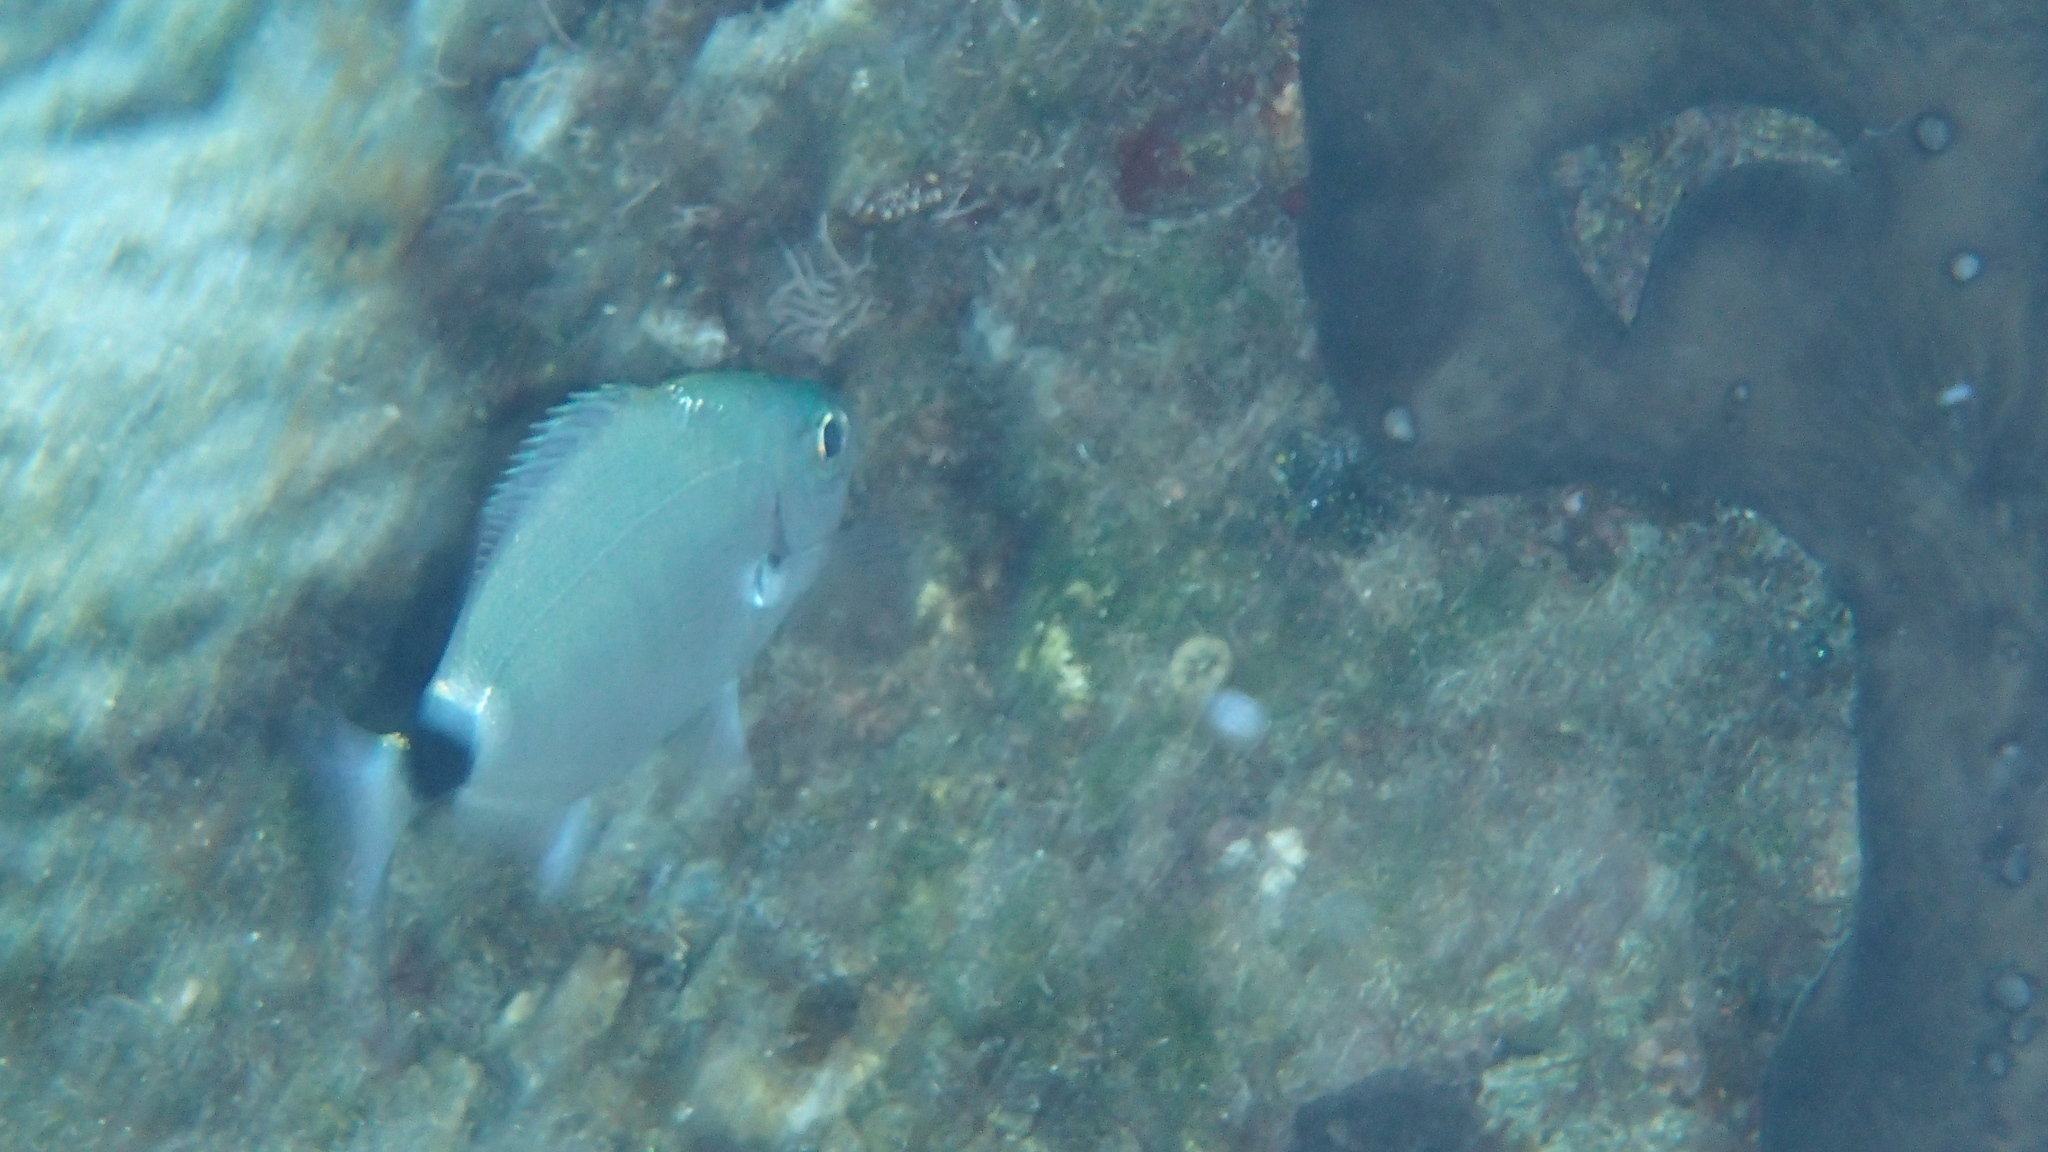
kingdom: Animalia
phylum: Chordata
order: Perciformes
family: Sparidae
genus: Oblada
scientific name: Oblada melanura
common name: Saddled seabream
